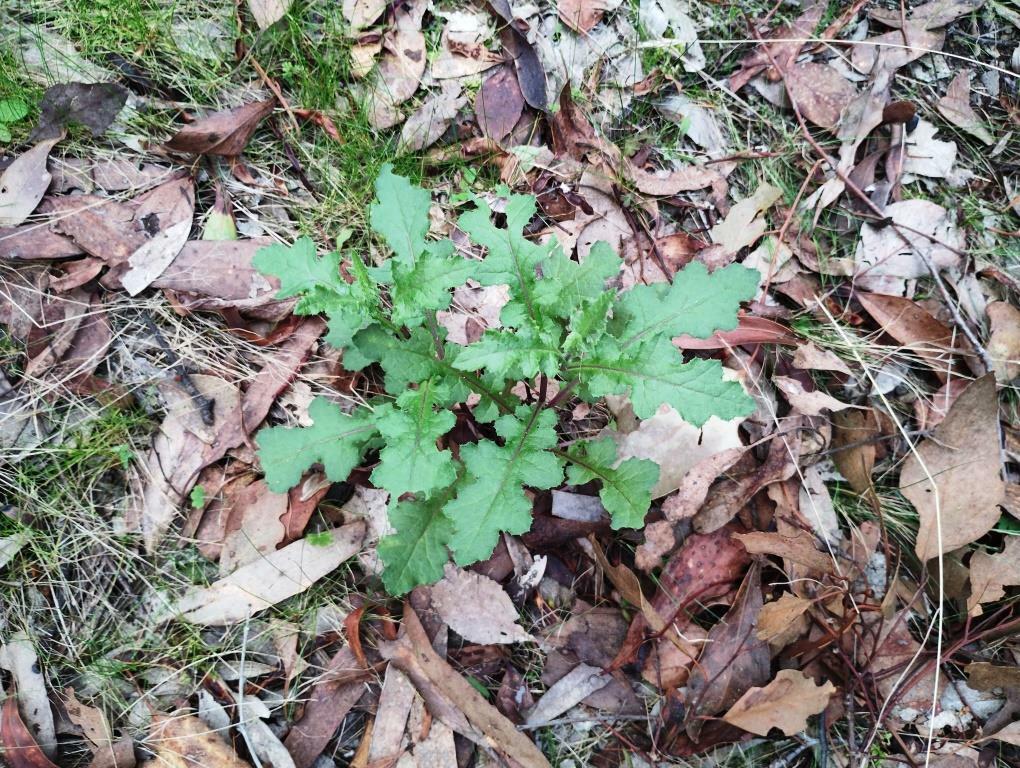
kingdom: Plantae
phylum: Tracheophyta
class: Magnoliopsida
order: Asterales
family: Asteraceae
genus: Senecio
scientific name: Senecio picridioides
